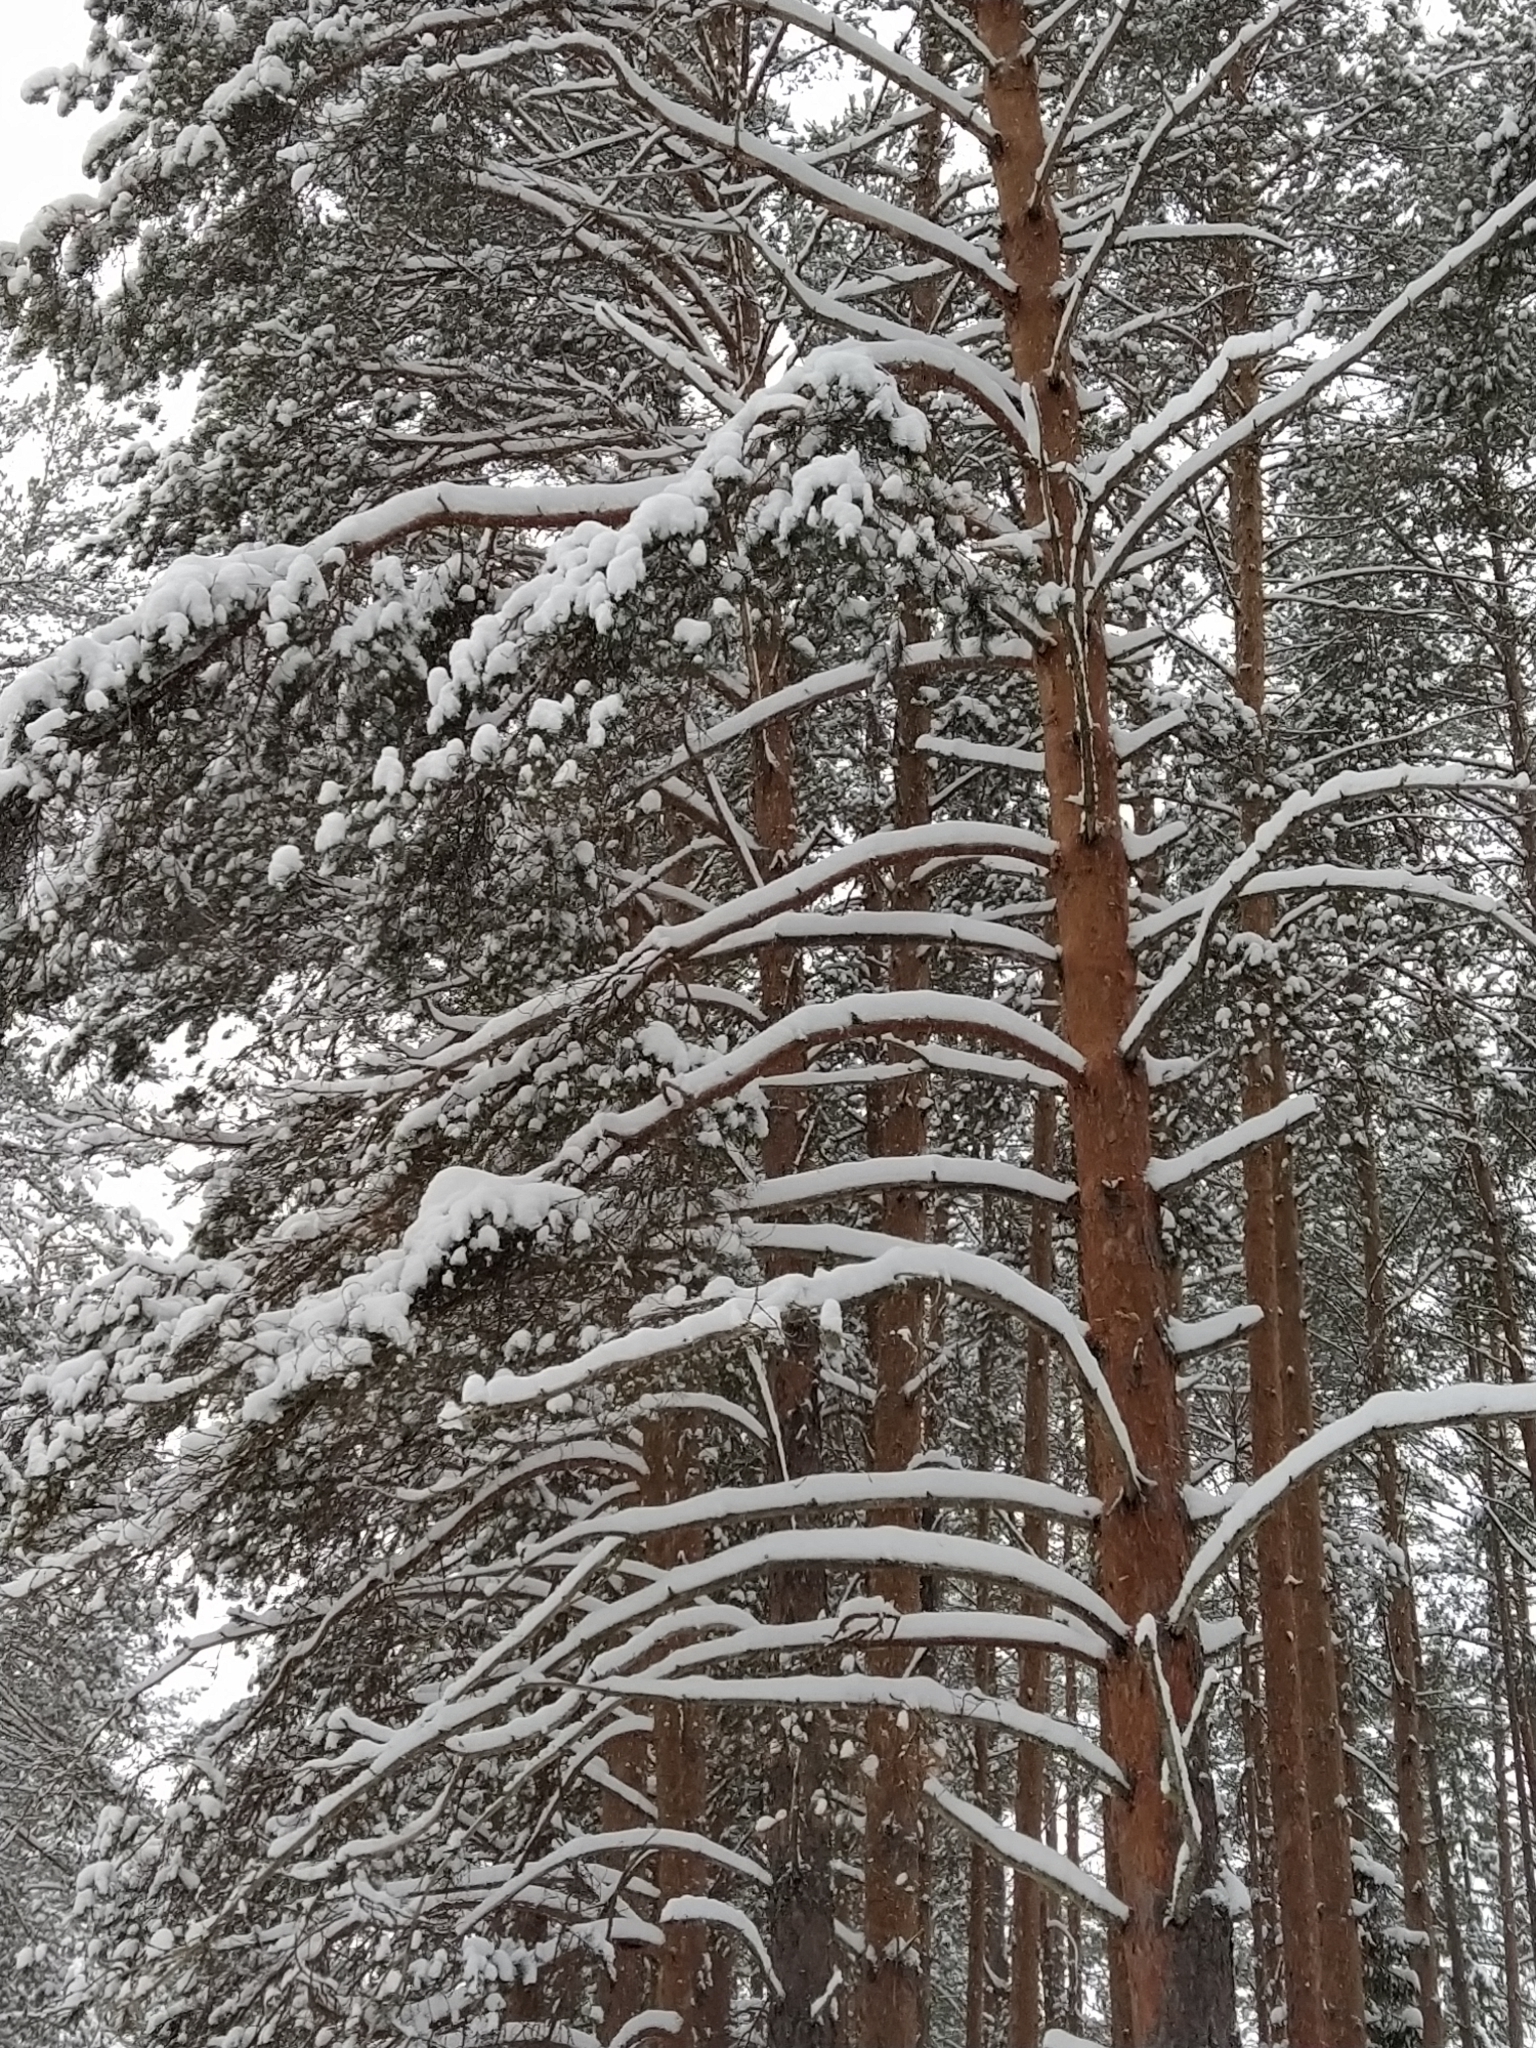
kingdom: Plantae
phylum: Tracheophyta
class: Pinopsida
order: Pinales
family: Pinaceae
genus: Pinus
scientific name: Pinus sylvestris
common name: Scots pine
